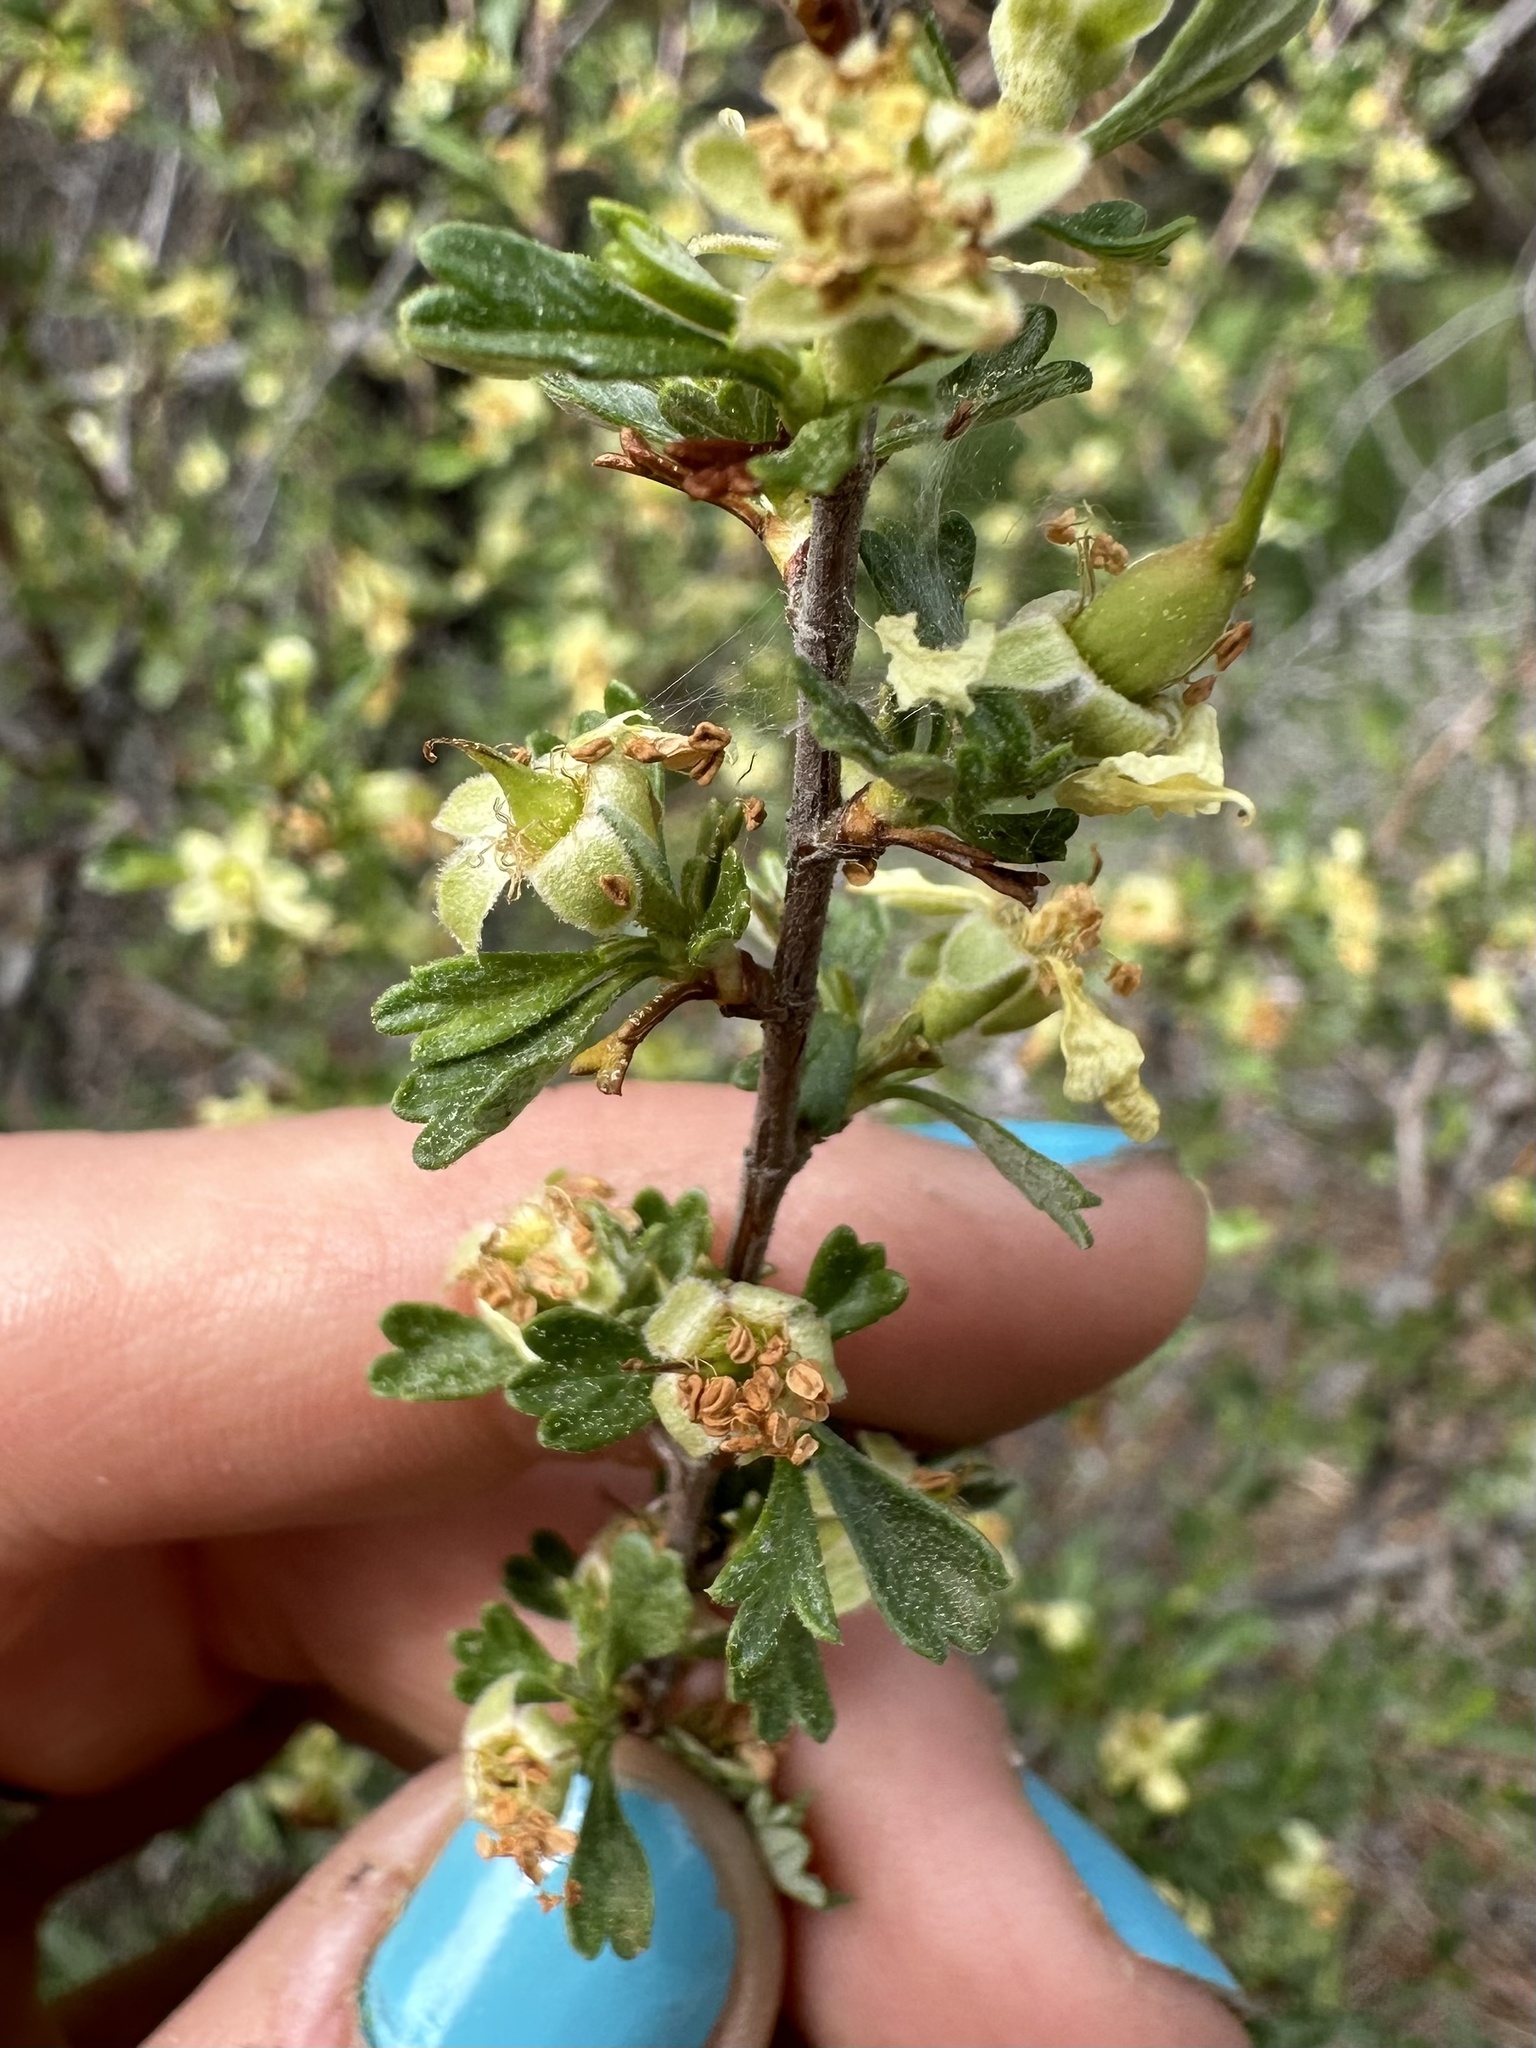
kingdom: Plantae
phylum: Tracheophyta
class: Magnoliopsida
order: Rosales
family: Rosaceae
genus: Purshia
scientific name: Purshia tridentata
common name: Antelope bitterbrush
